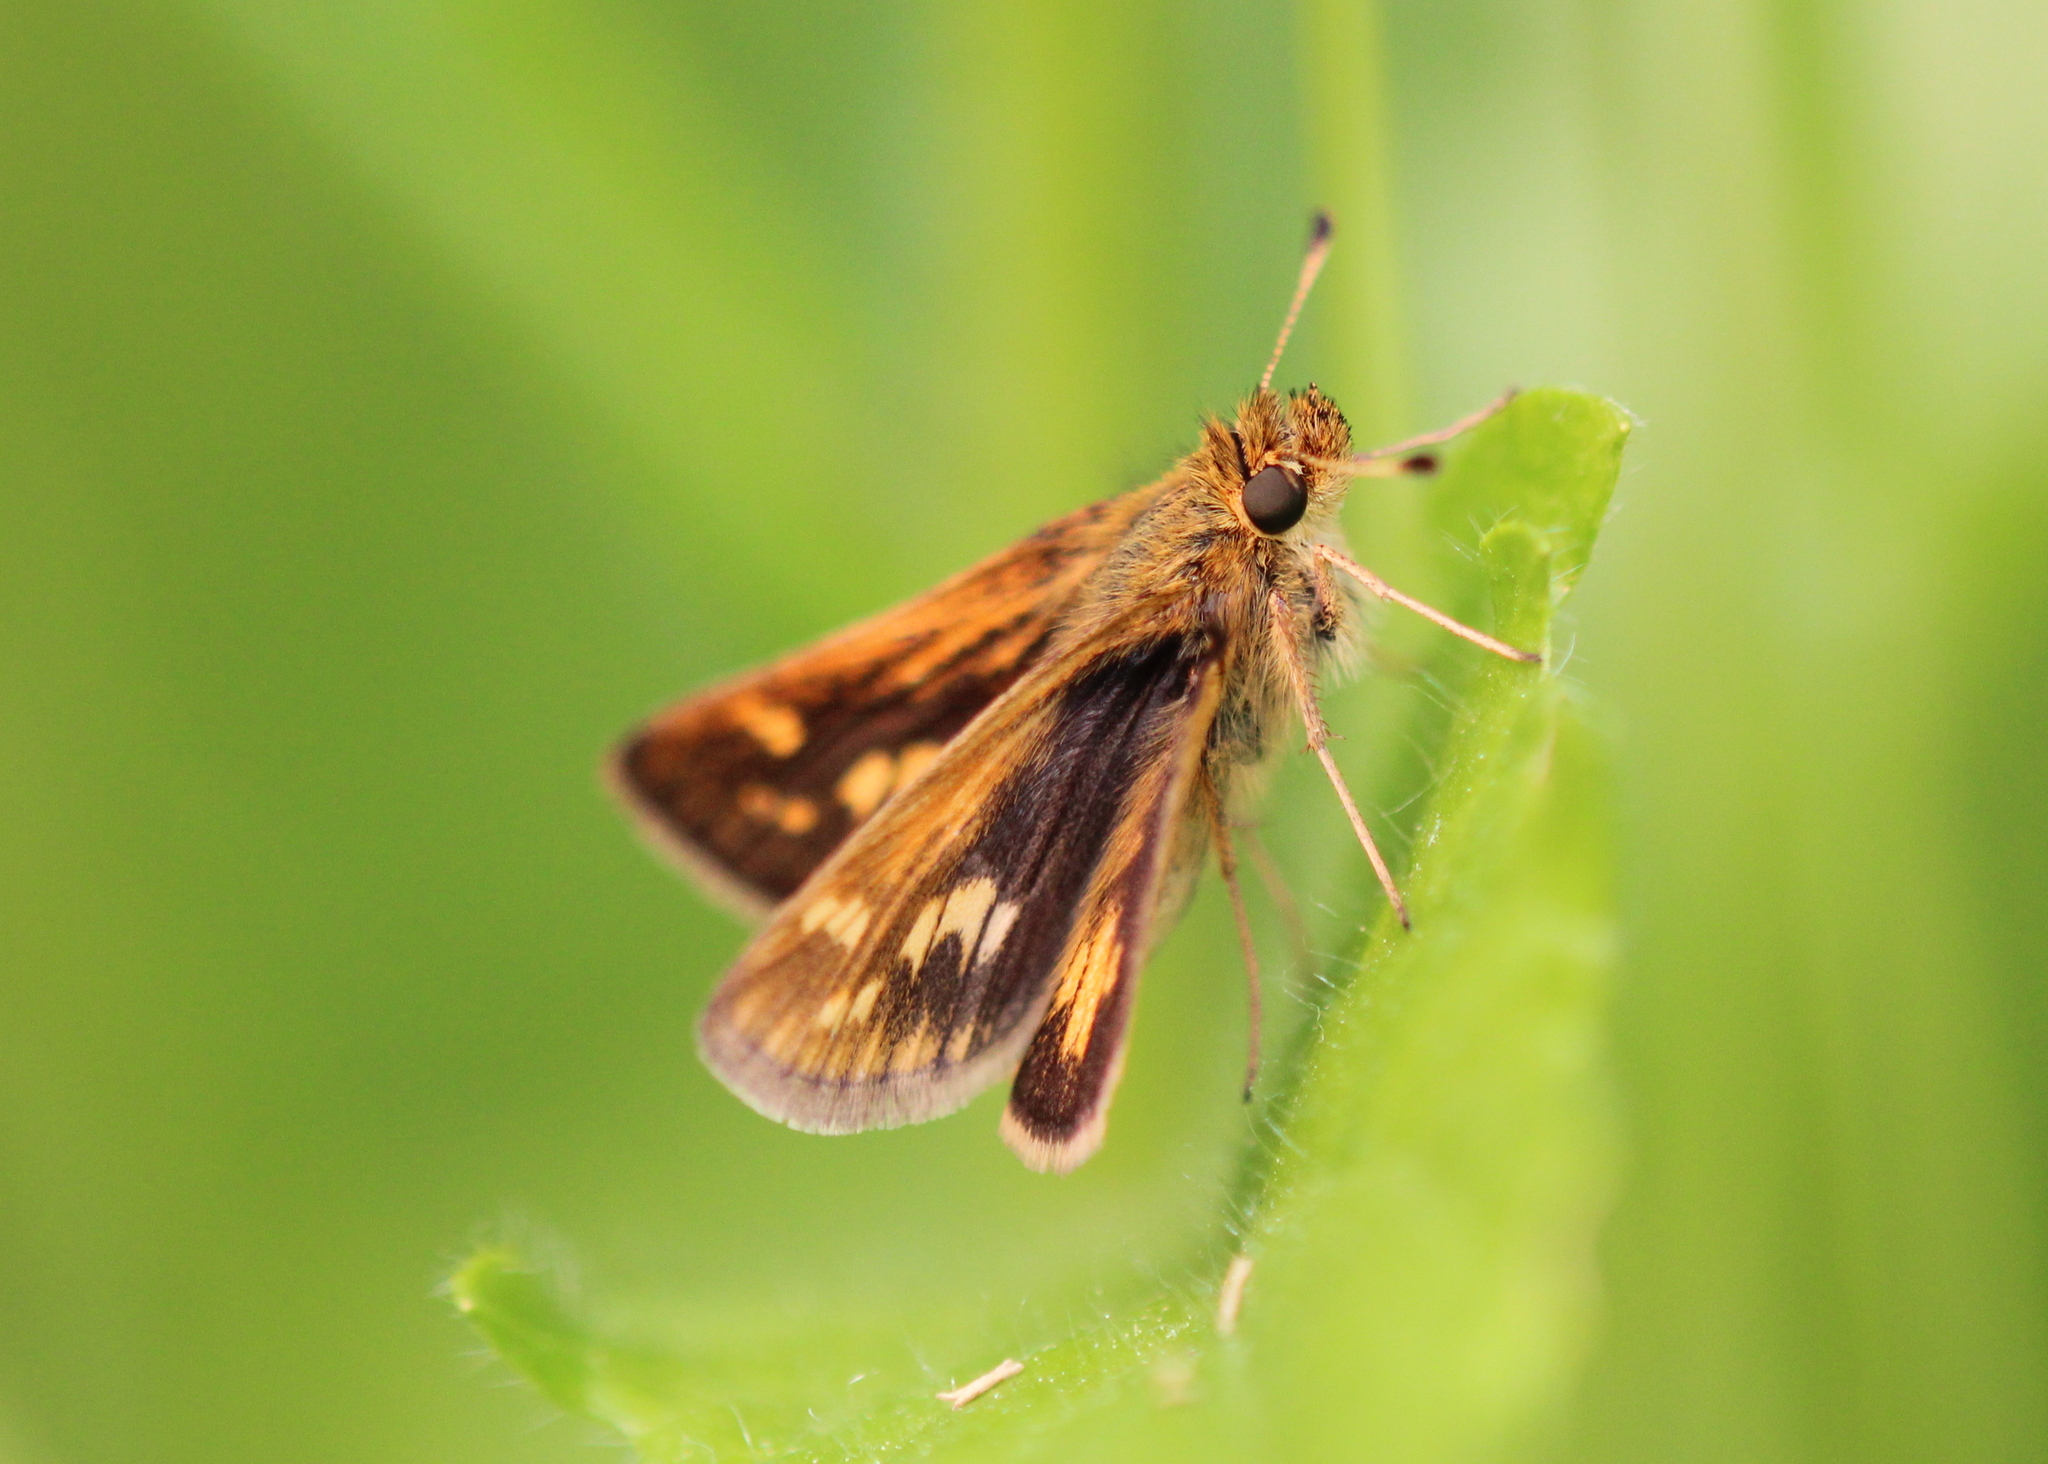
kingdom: Animalia
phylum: Arthropoda
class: Insecta
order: Lepidoptera
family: Hesperiidae
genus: Polites
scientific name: Polites coras
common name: Peck's skipper
